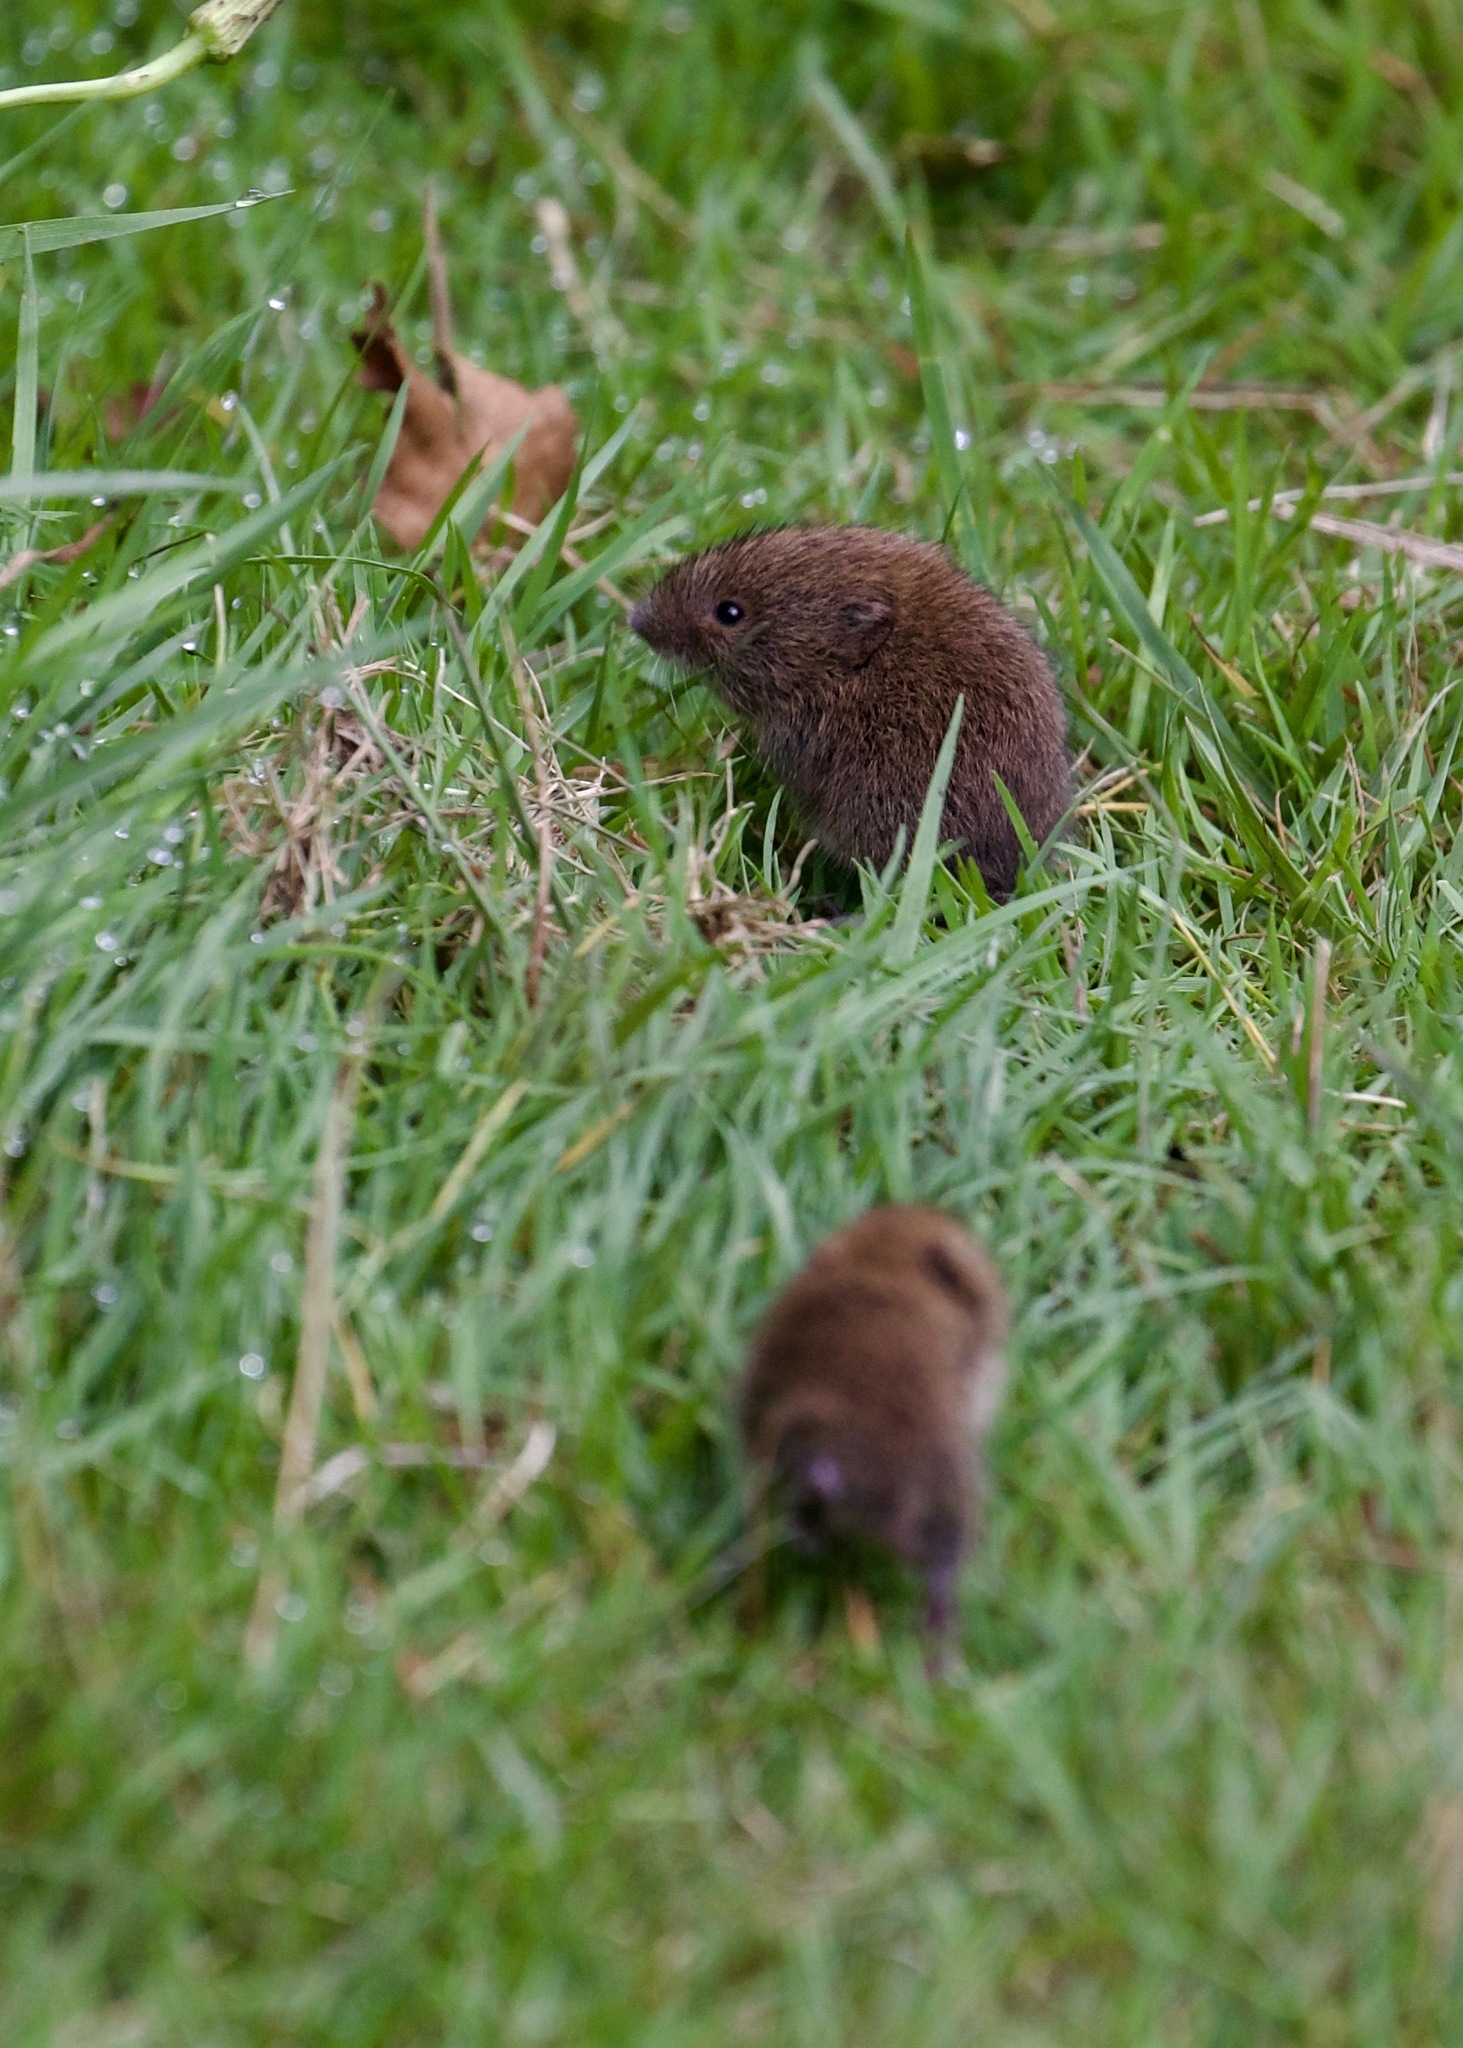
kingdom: Animalia
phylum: Chordata
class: Mammalia
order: Rodentia
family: Cricetidae
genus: Myodes
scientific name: Myodes glareolus
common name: Bank vole
